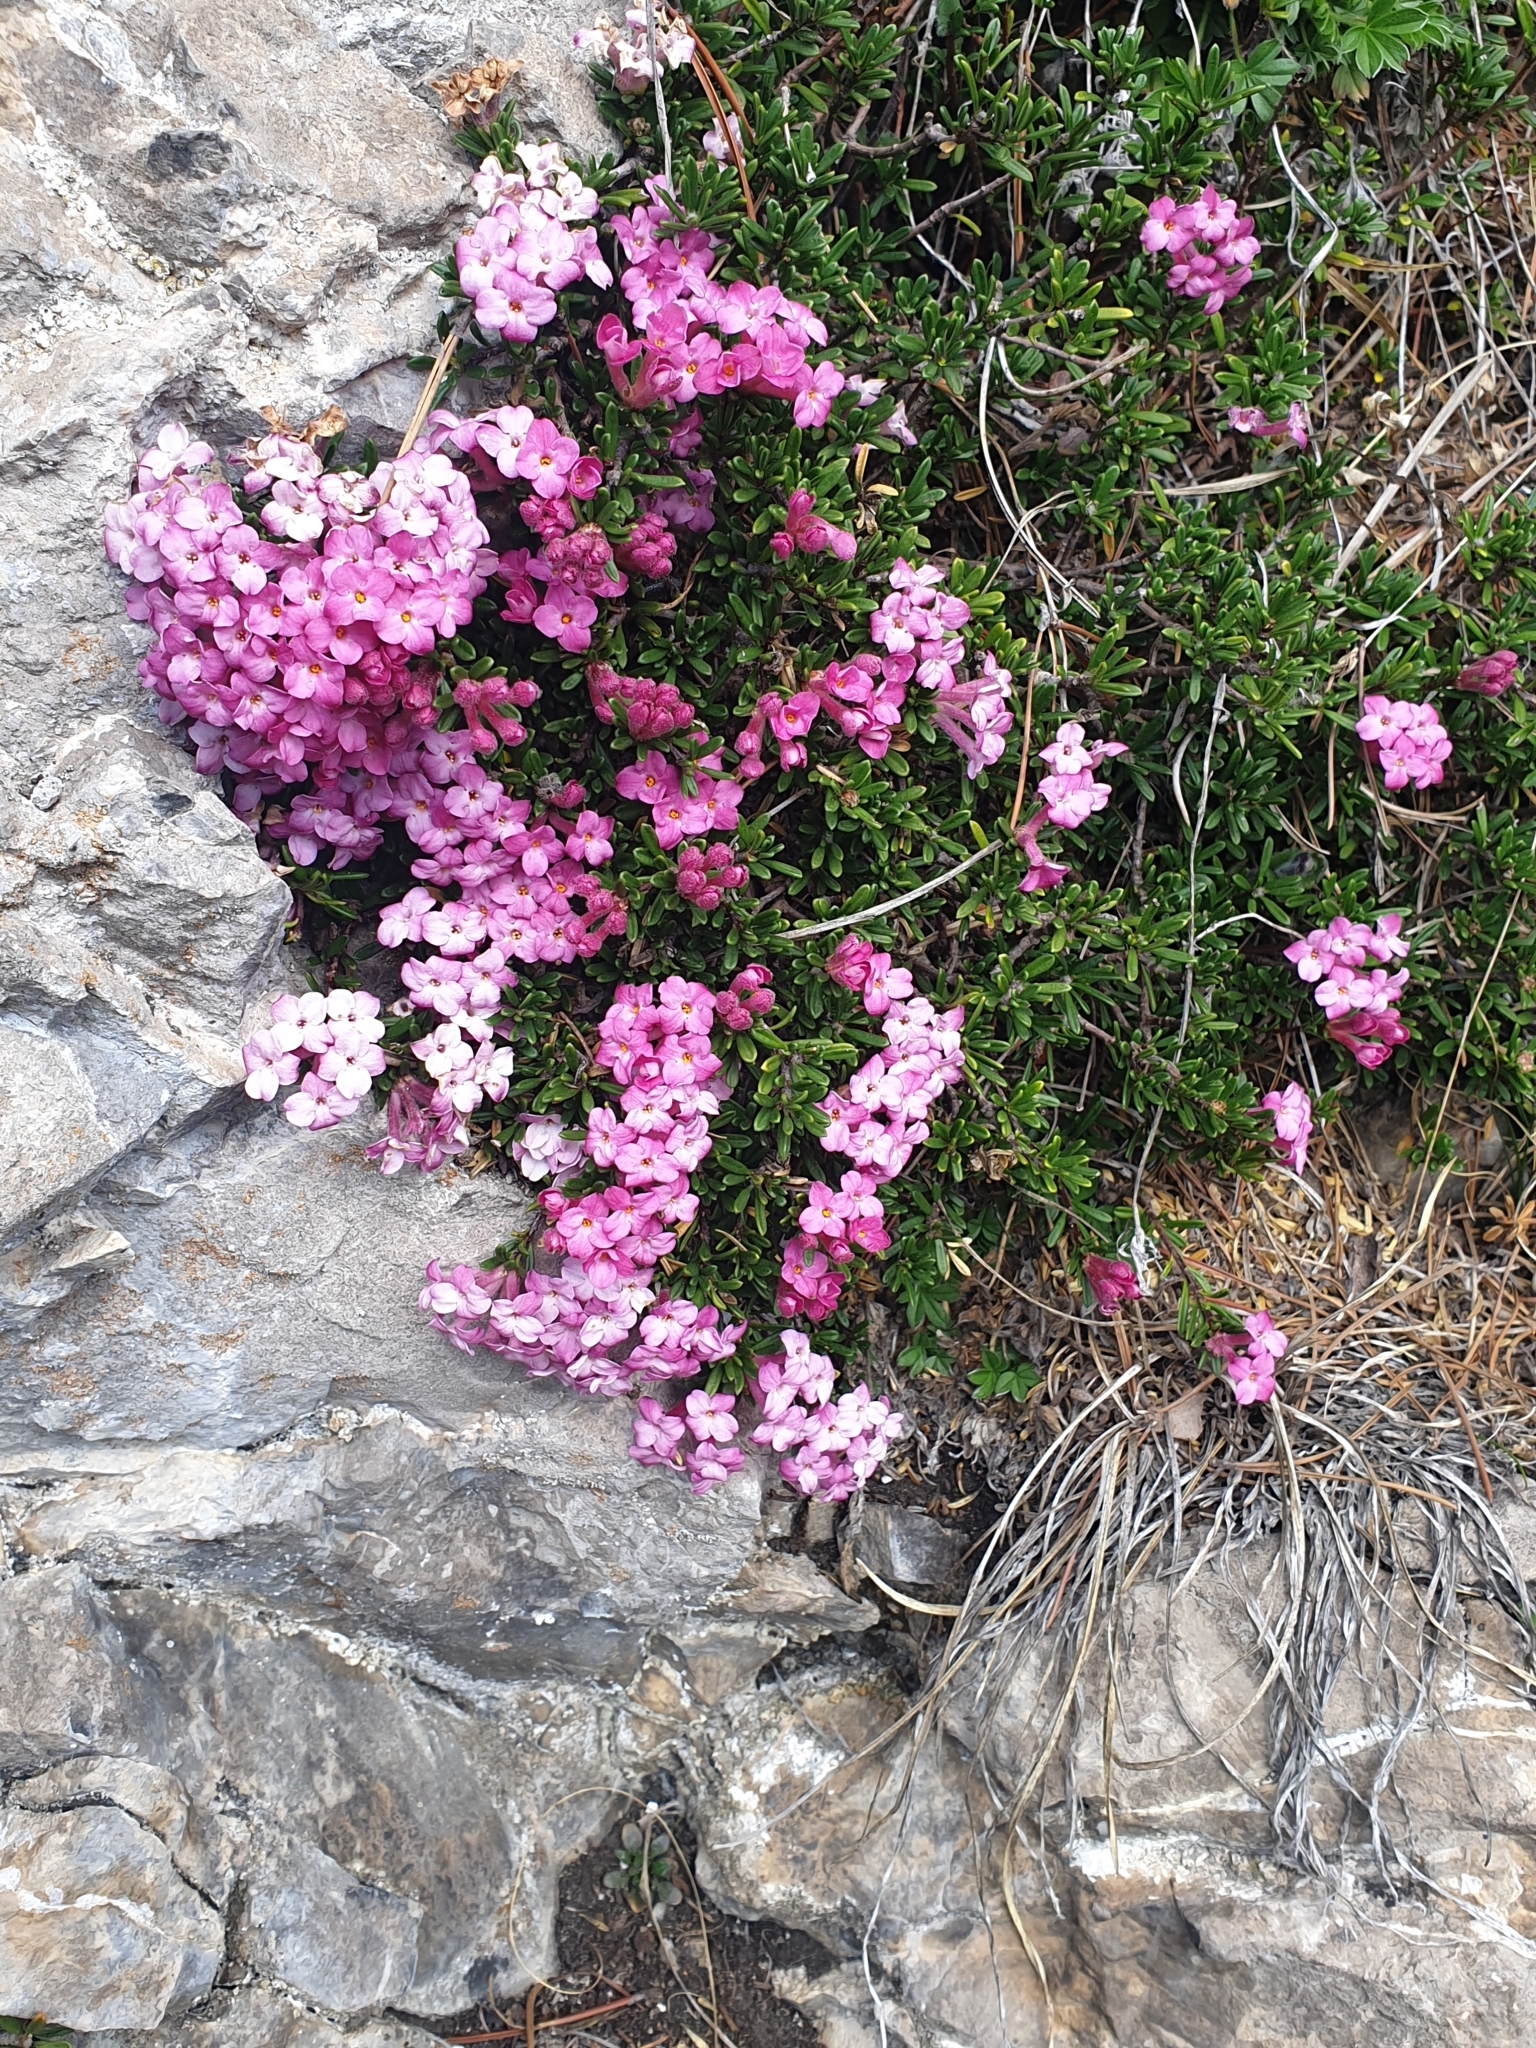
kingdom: Plantae
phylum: Tracheophyta
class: Magnoliopsida
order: Malvales
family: Thymelaeaceae
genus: Daphne
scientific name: Daphne petraea
